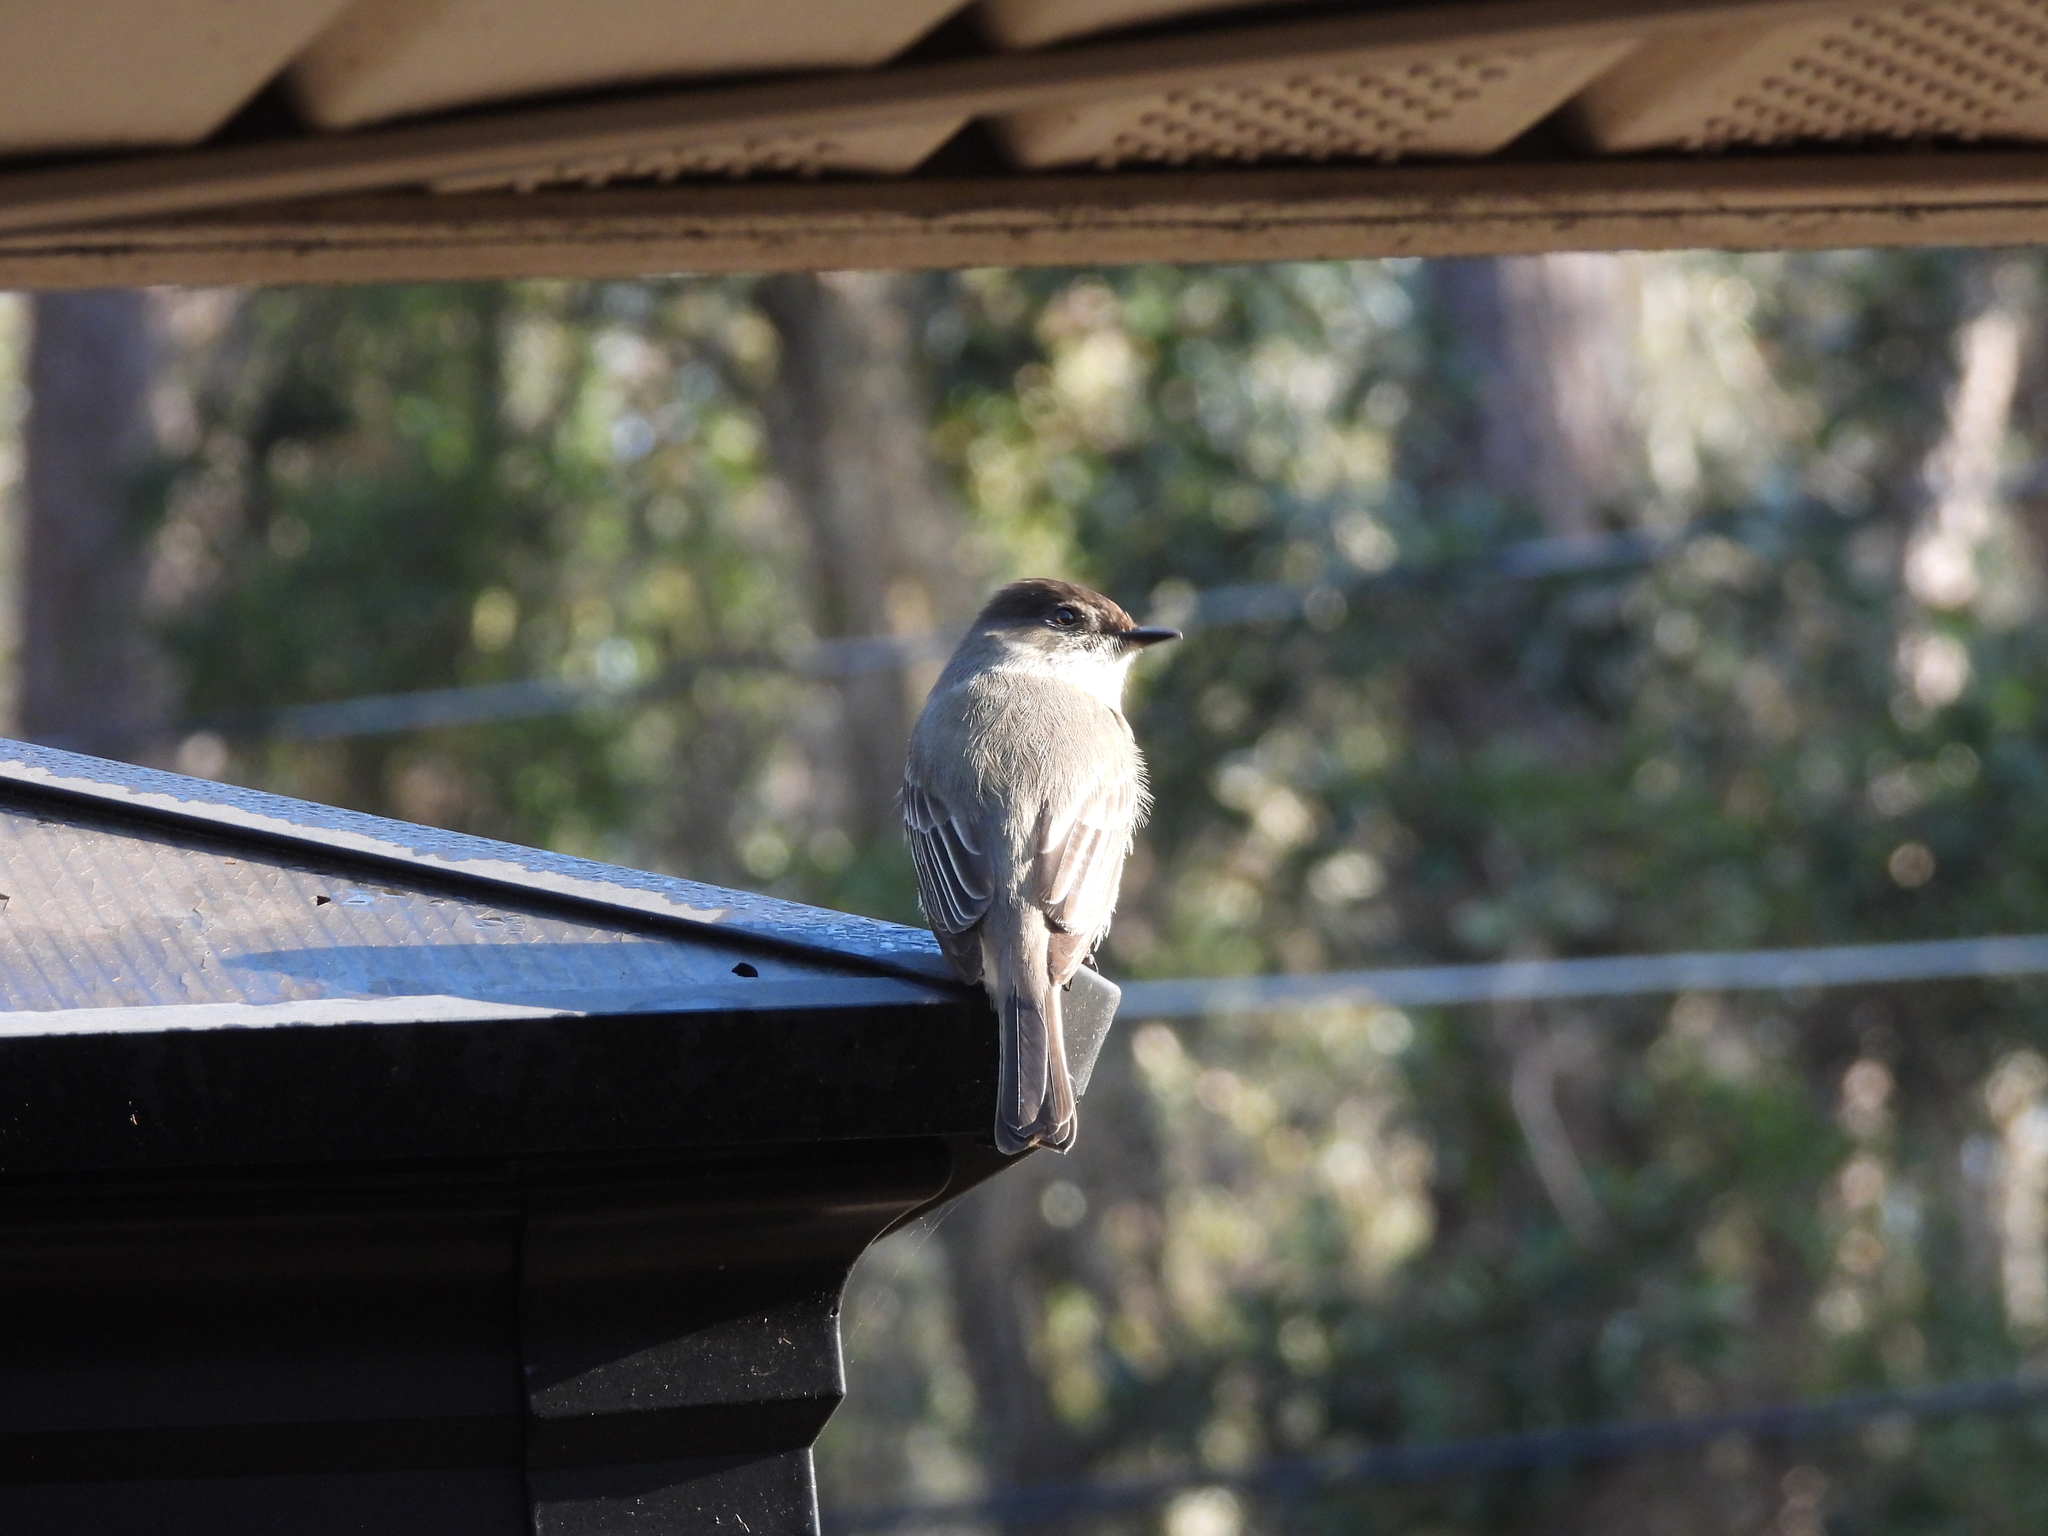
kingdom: Animalia
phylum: Chordata
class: Aves
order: Passeriformes
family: Tyrannidae
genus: Sayornis
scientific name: Sayornis phoebe
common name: Eastern phoebe
